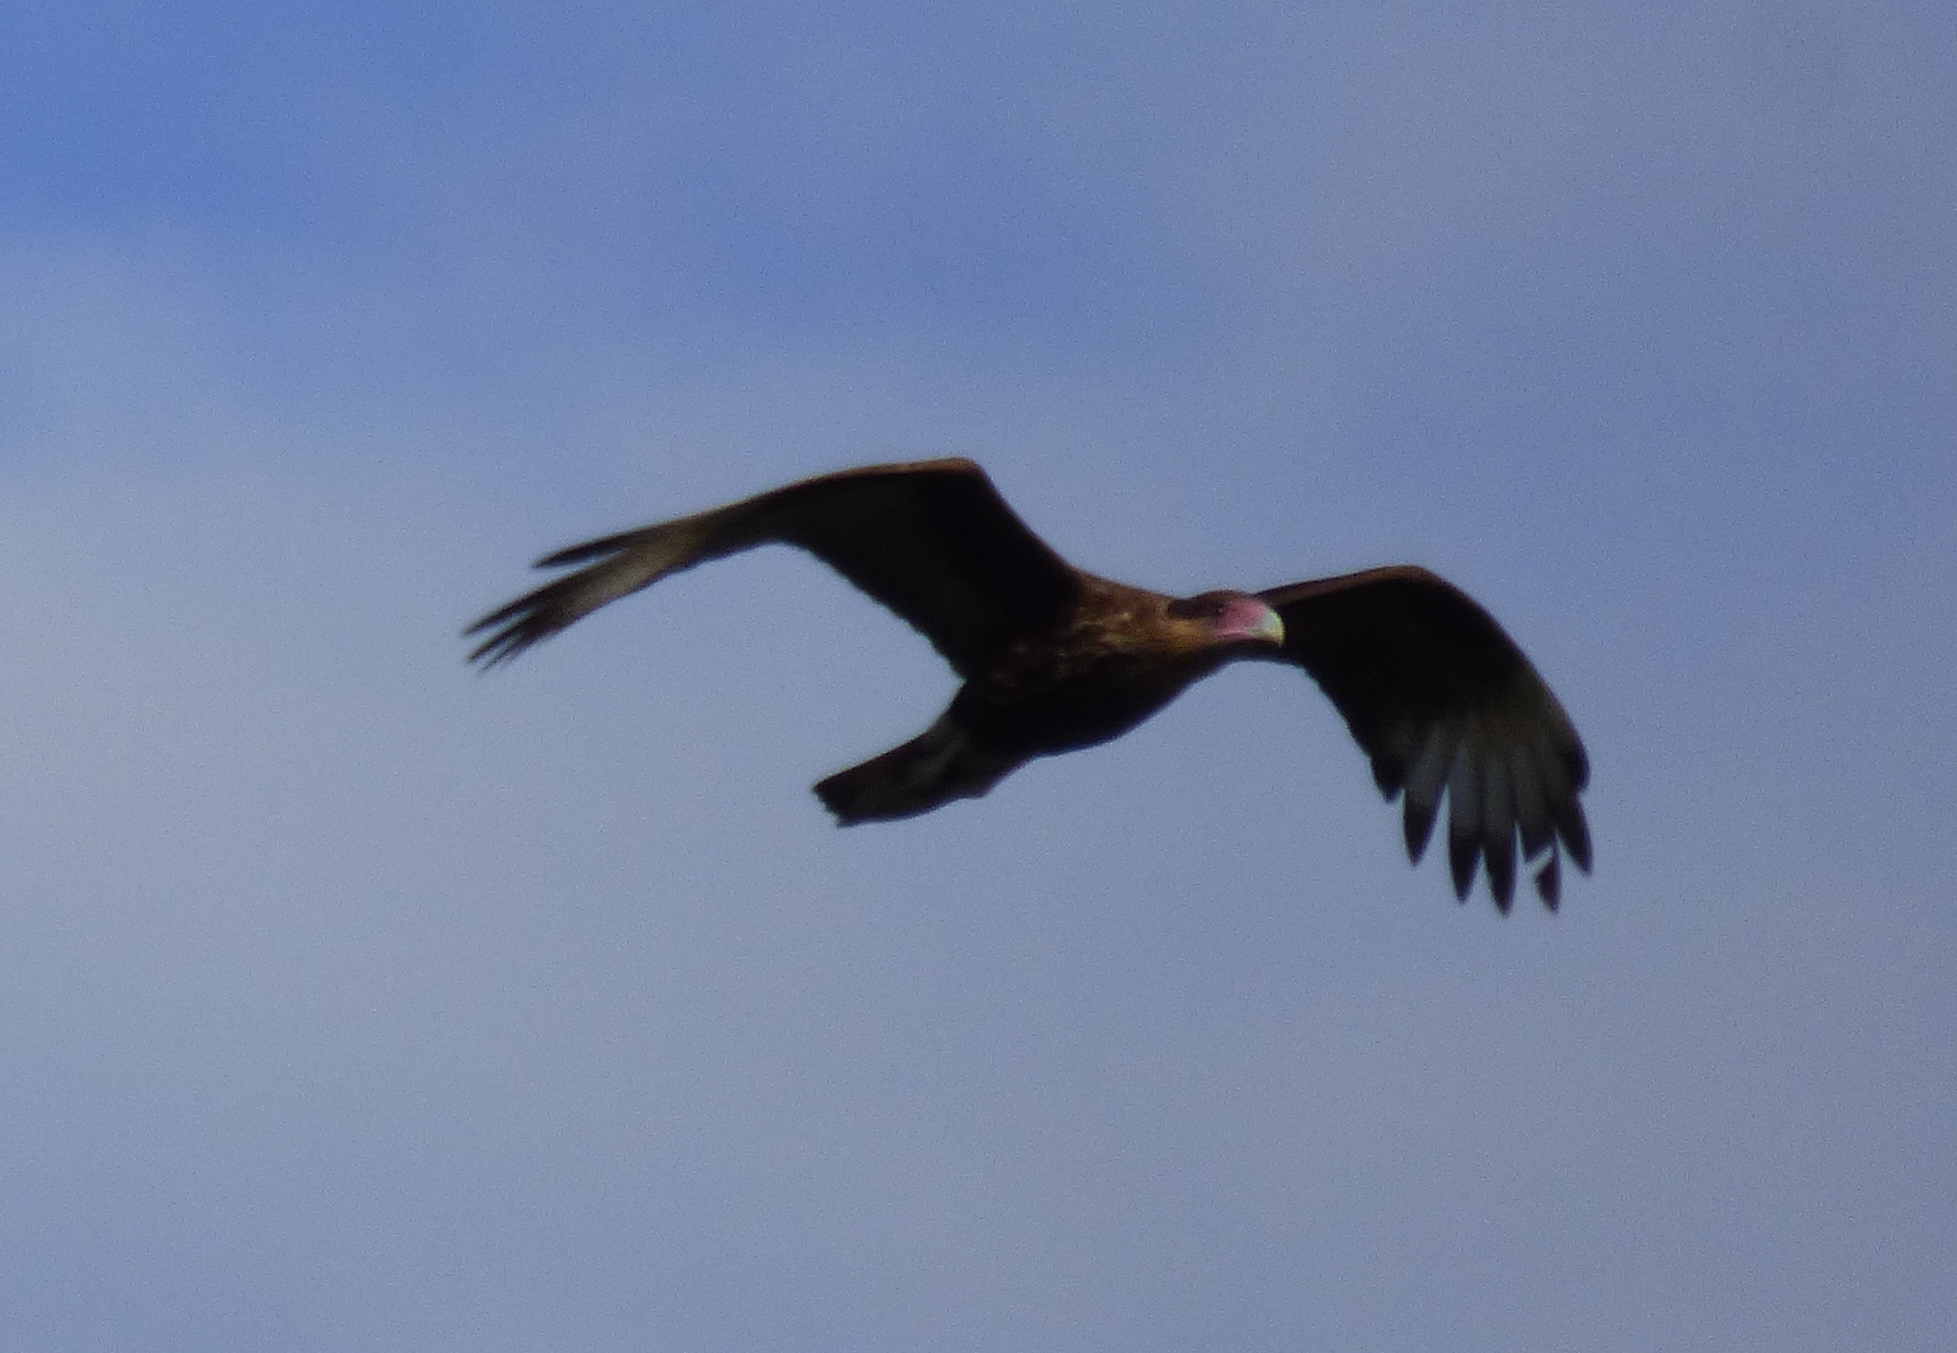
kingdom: Animalia
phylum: Chordata
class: Aves
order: Falconiformes
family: Falconidae
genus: Caracara
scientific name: Caracara plancus
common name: Southern caracara
